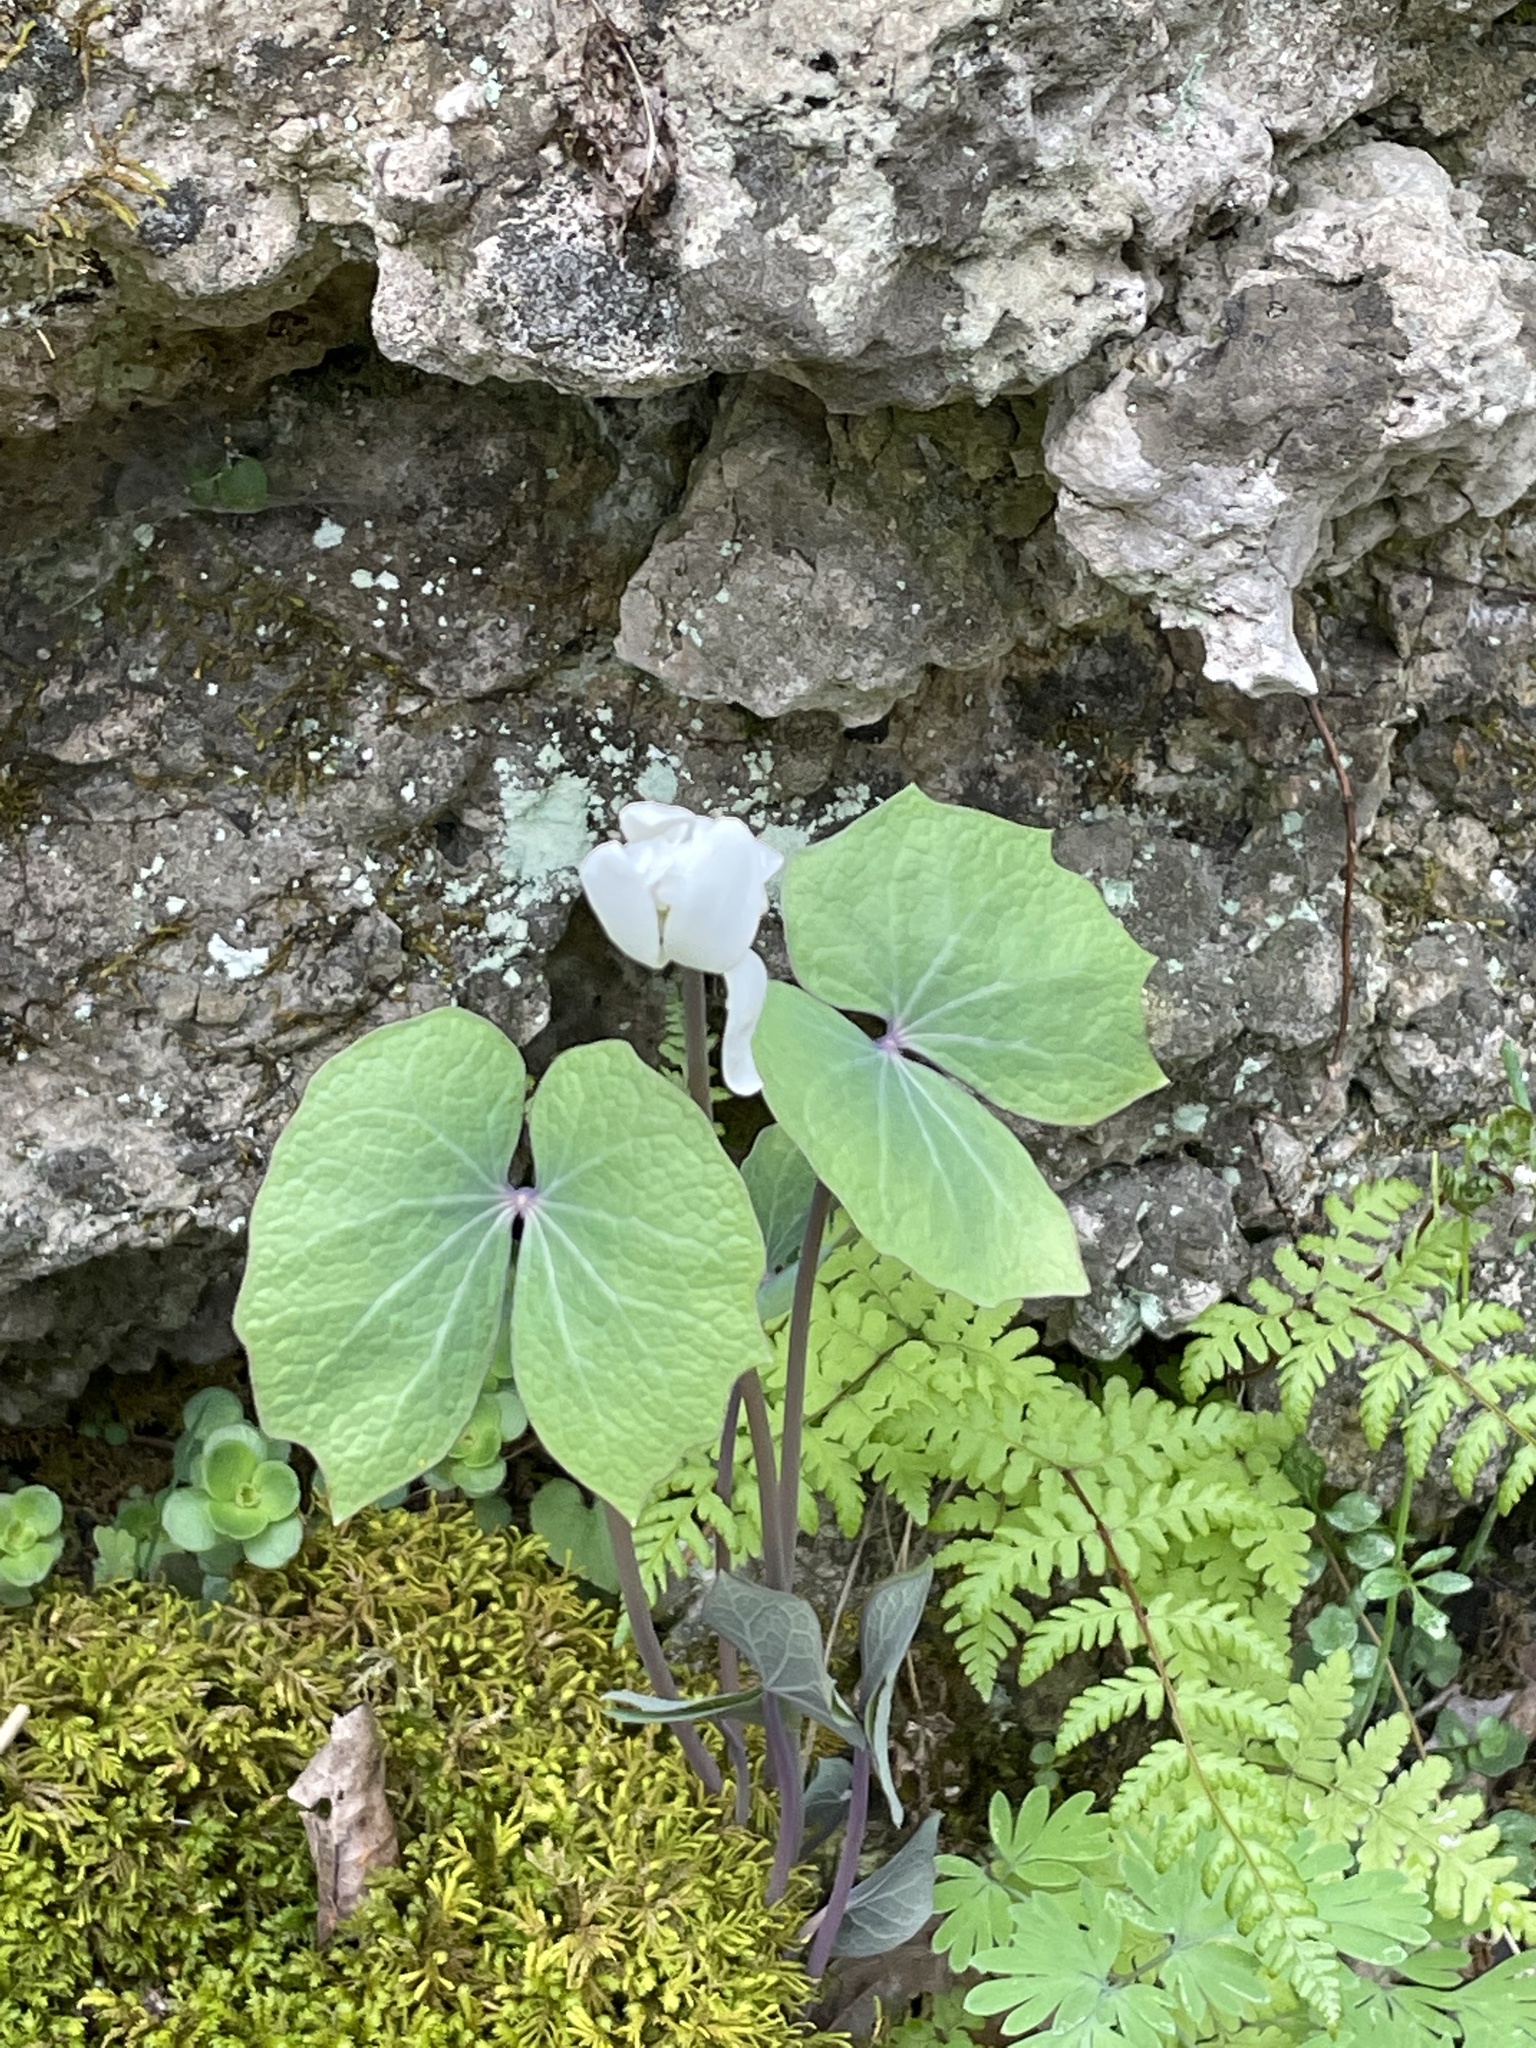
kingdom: Plantae
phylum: Tracheophyta
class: Magnoliopsida
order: Ranunculales
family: Berberidaceae
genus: Jeffersonia
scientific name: Jeffersonia diphylla
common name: Rheumatism-root
